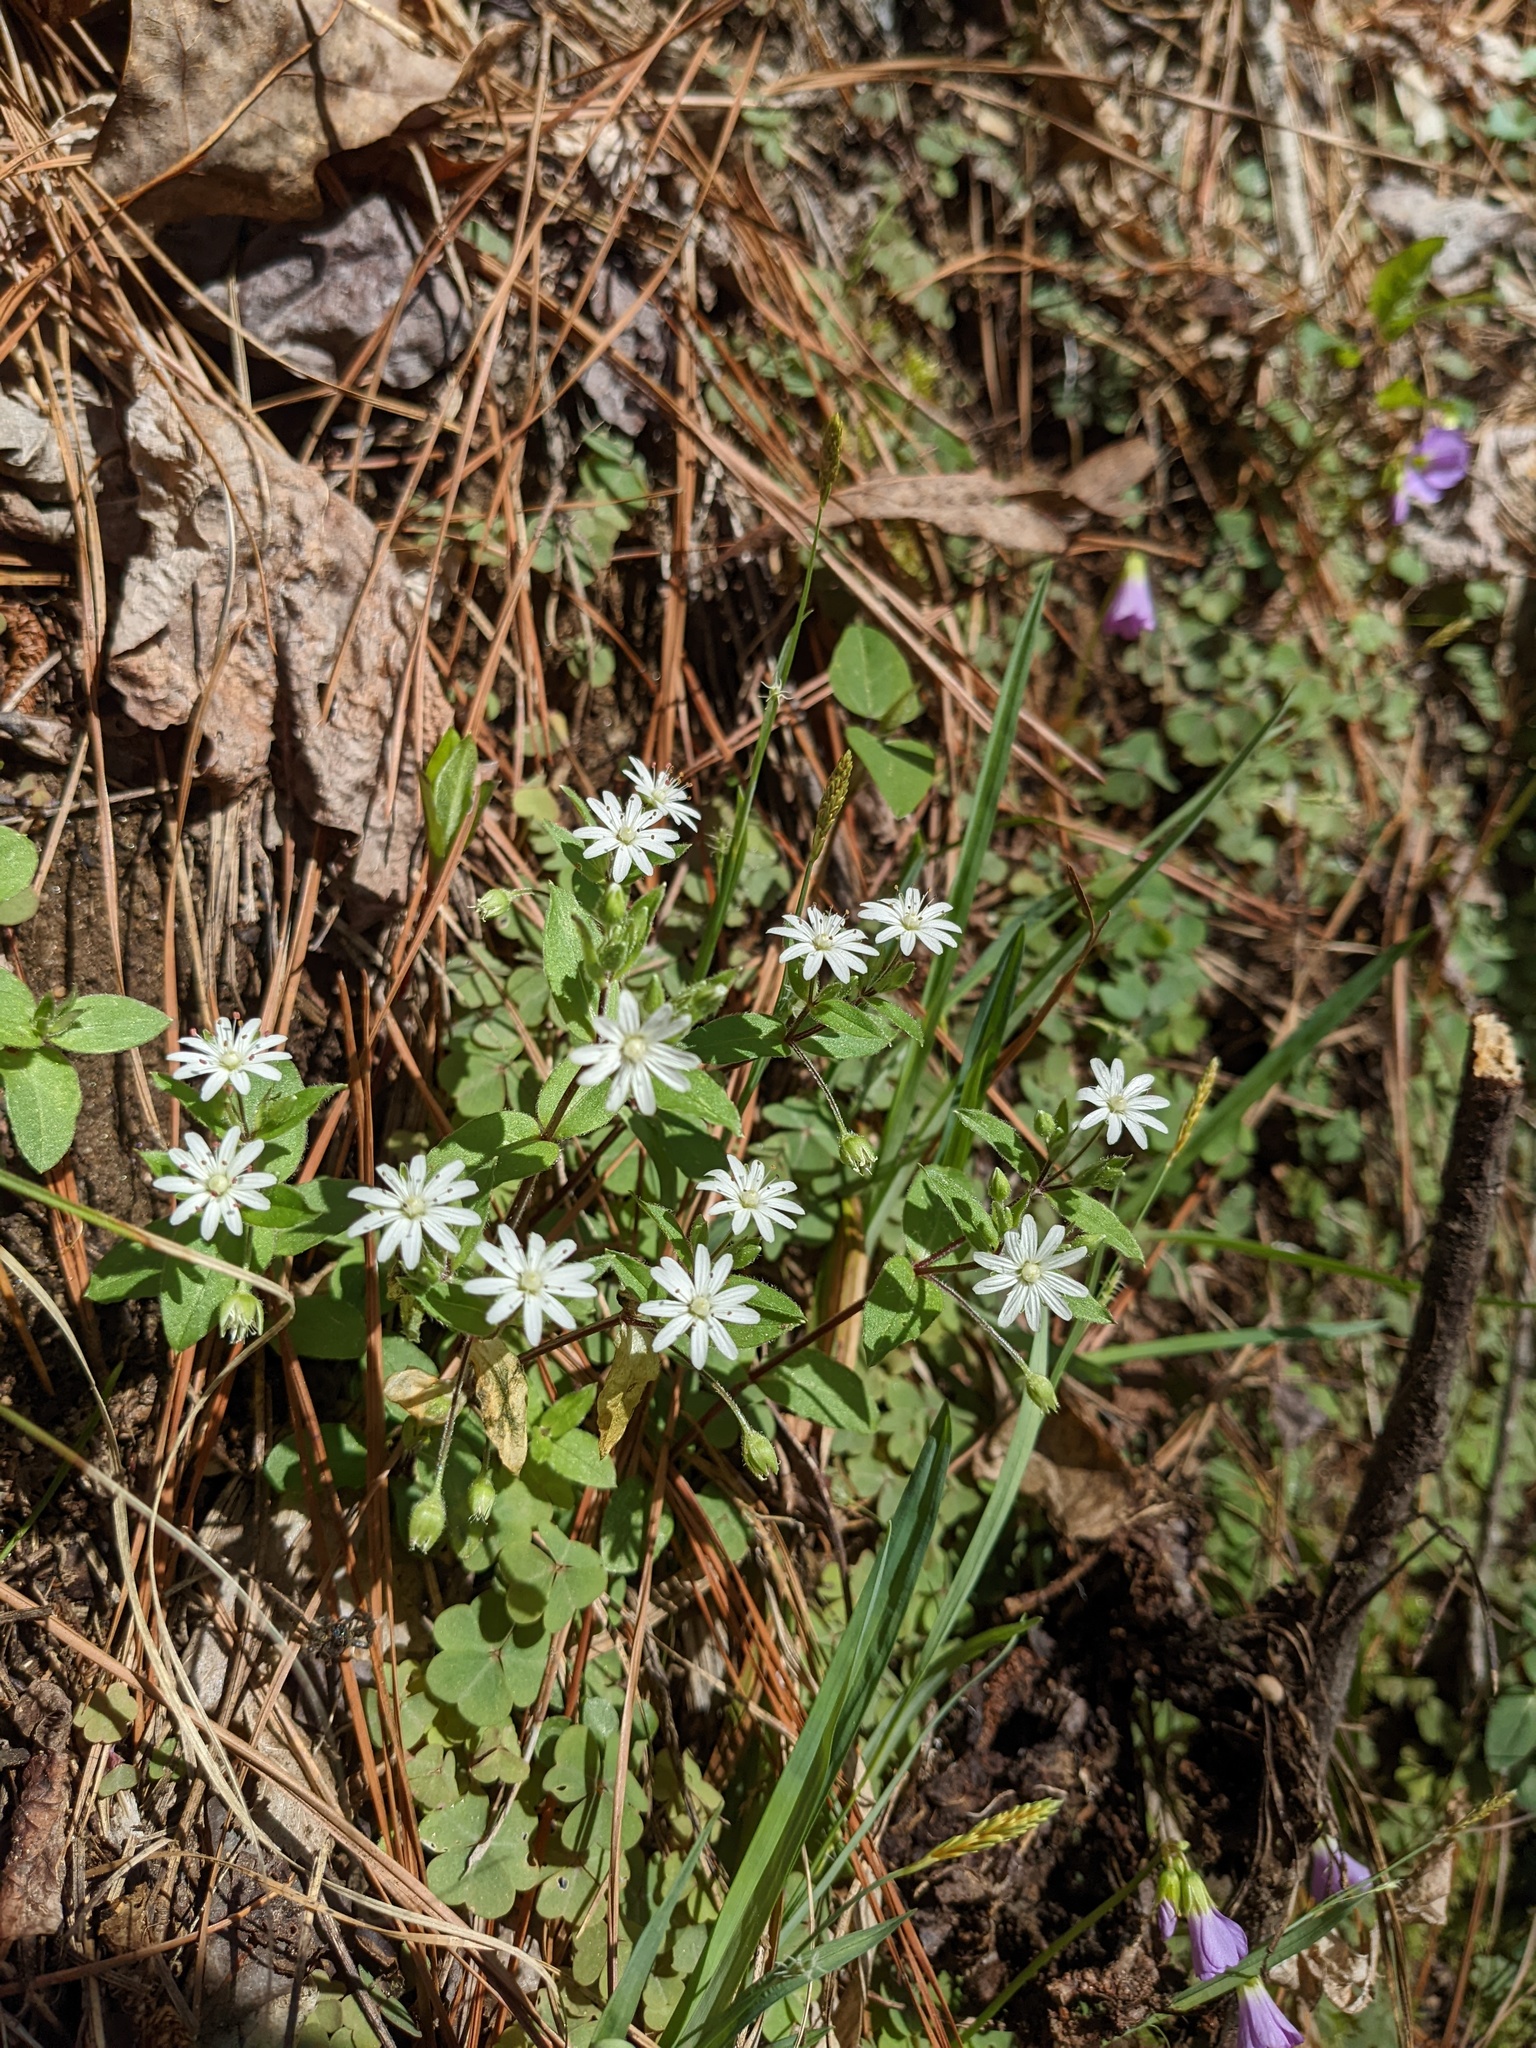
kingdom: Plantae
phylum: Tracheophyta
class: Magnoliopsida
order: Caryophyllales
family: Caryophyllaceae
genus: Stellaria
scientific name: Stellaria pubera
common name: Star chickweed
